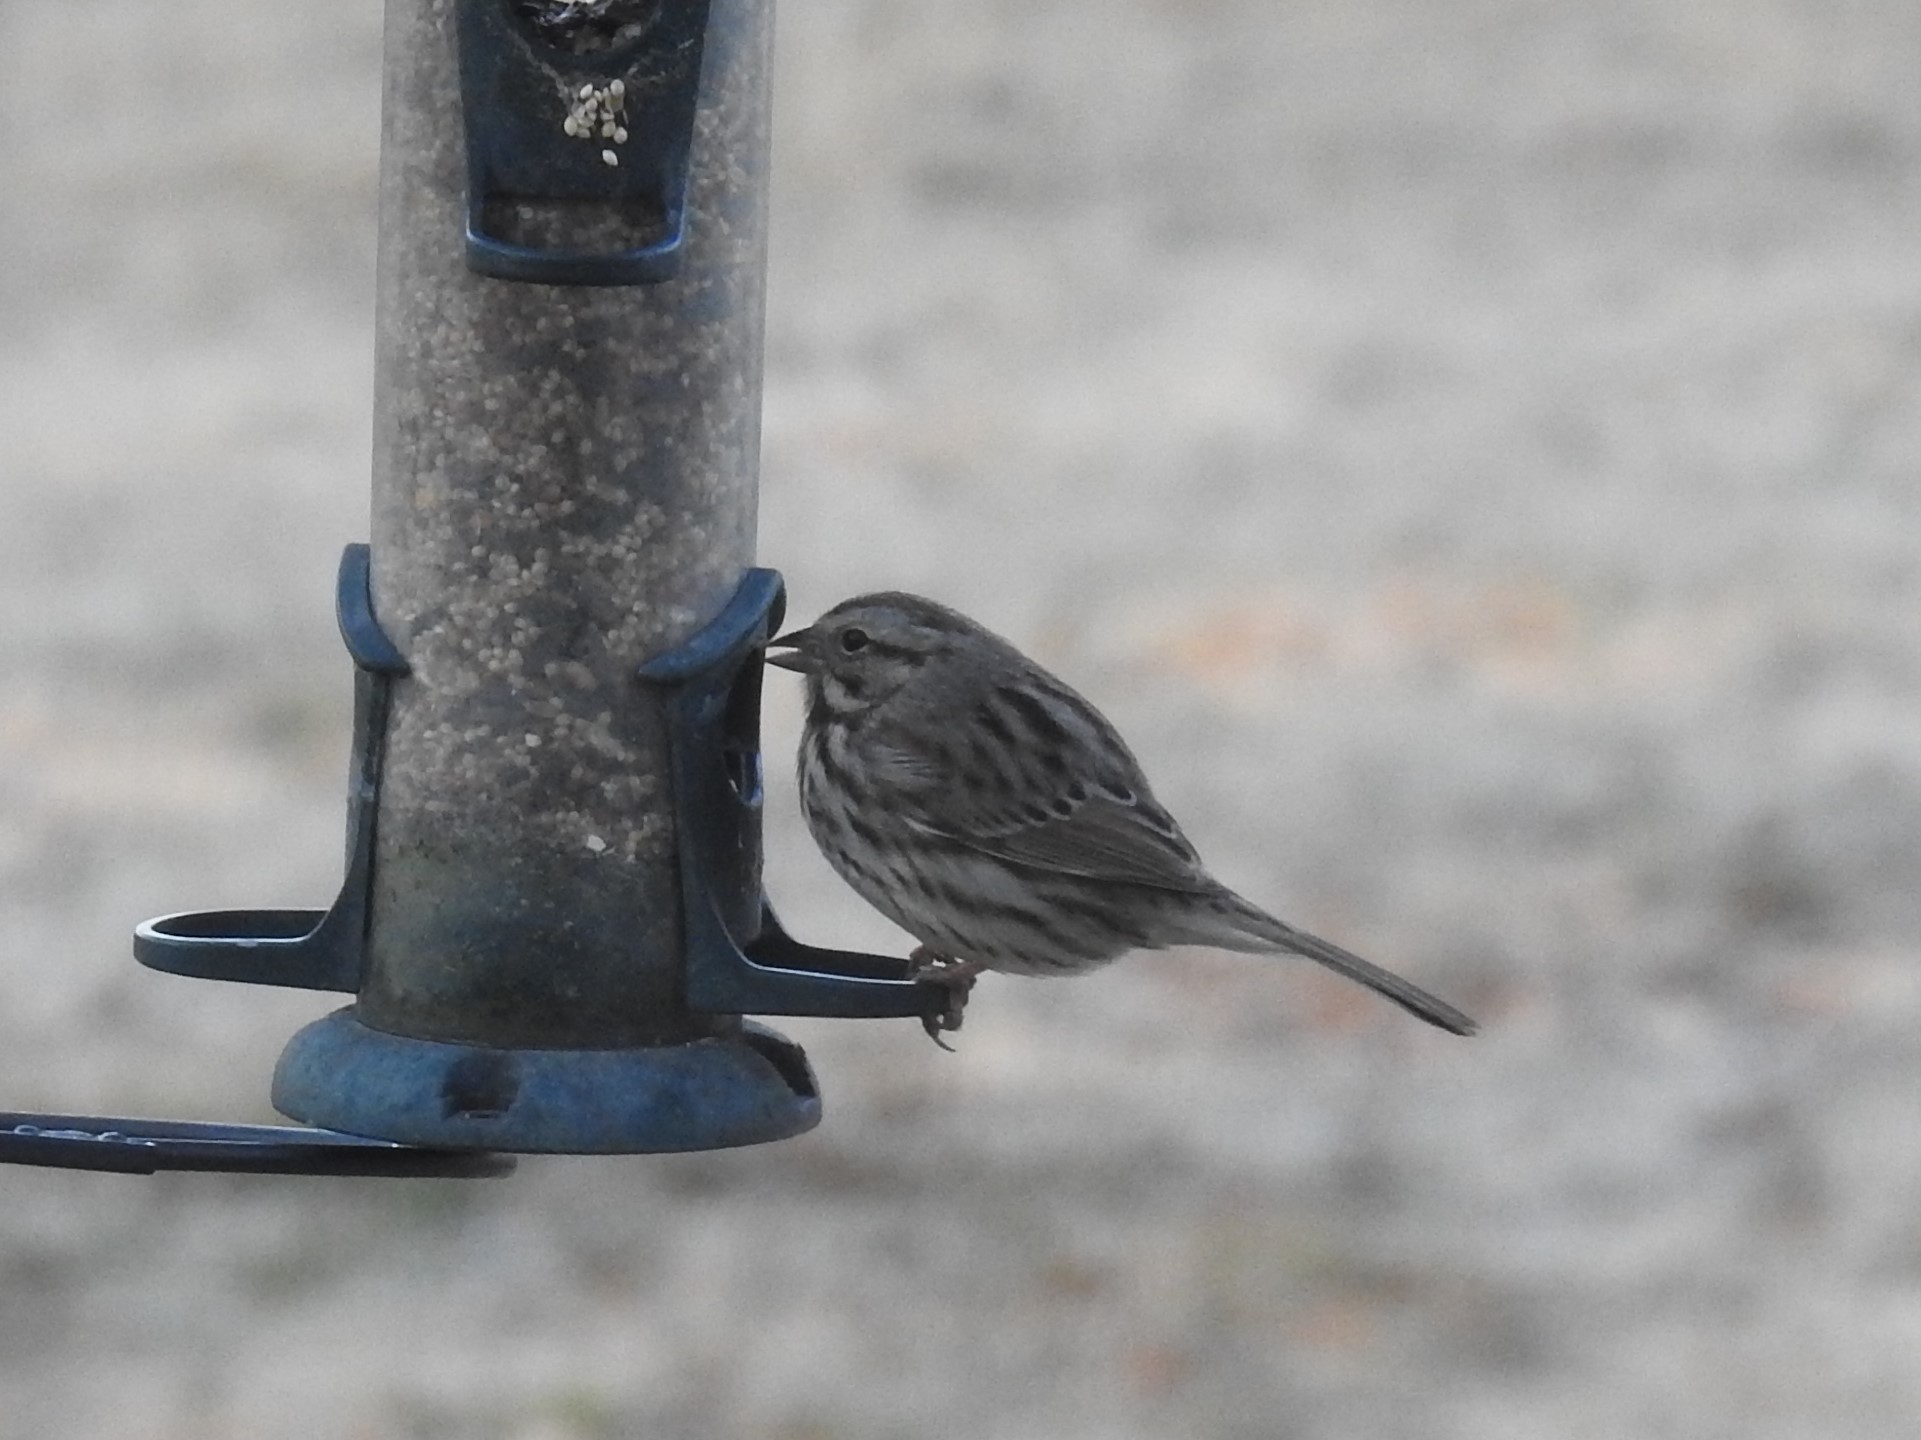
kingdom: Animalia
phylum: Chordata
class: Aves
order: Passeriformes
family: Passerellidae
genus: Melospiza
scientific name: Melospiza melodia
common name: Song sparrow
